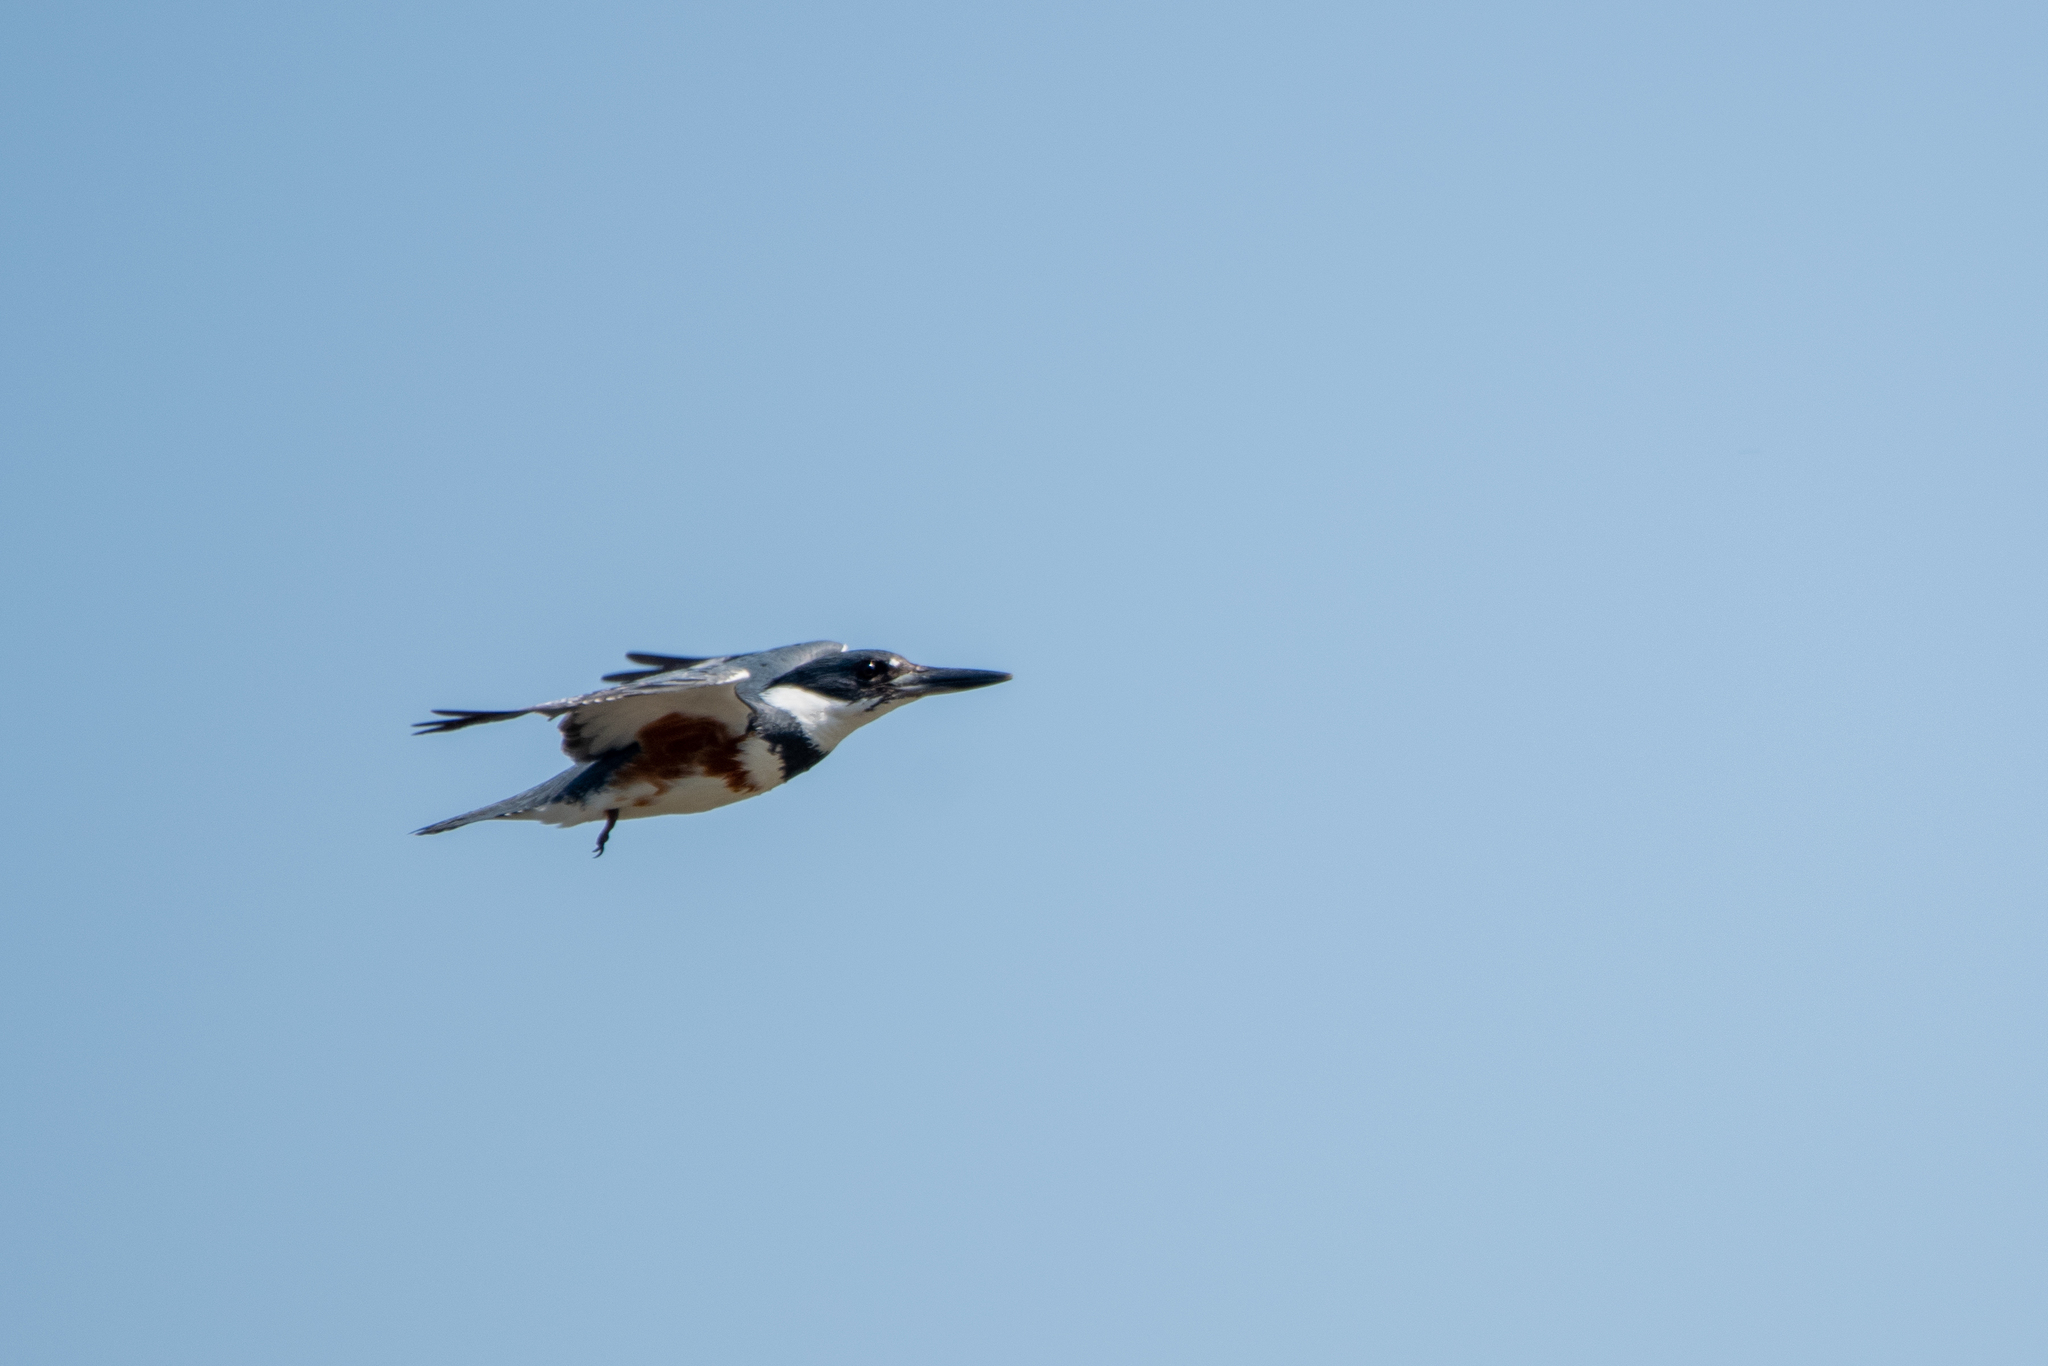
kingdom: Animalia
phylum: Chordata
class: Aves
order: Coraciiformes
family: Alcedinidae
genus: Megaceryle
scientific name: Megaceryle alcyon
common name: Belted kingfisher
